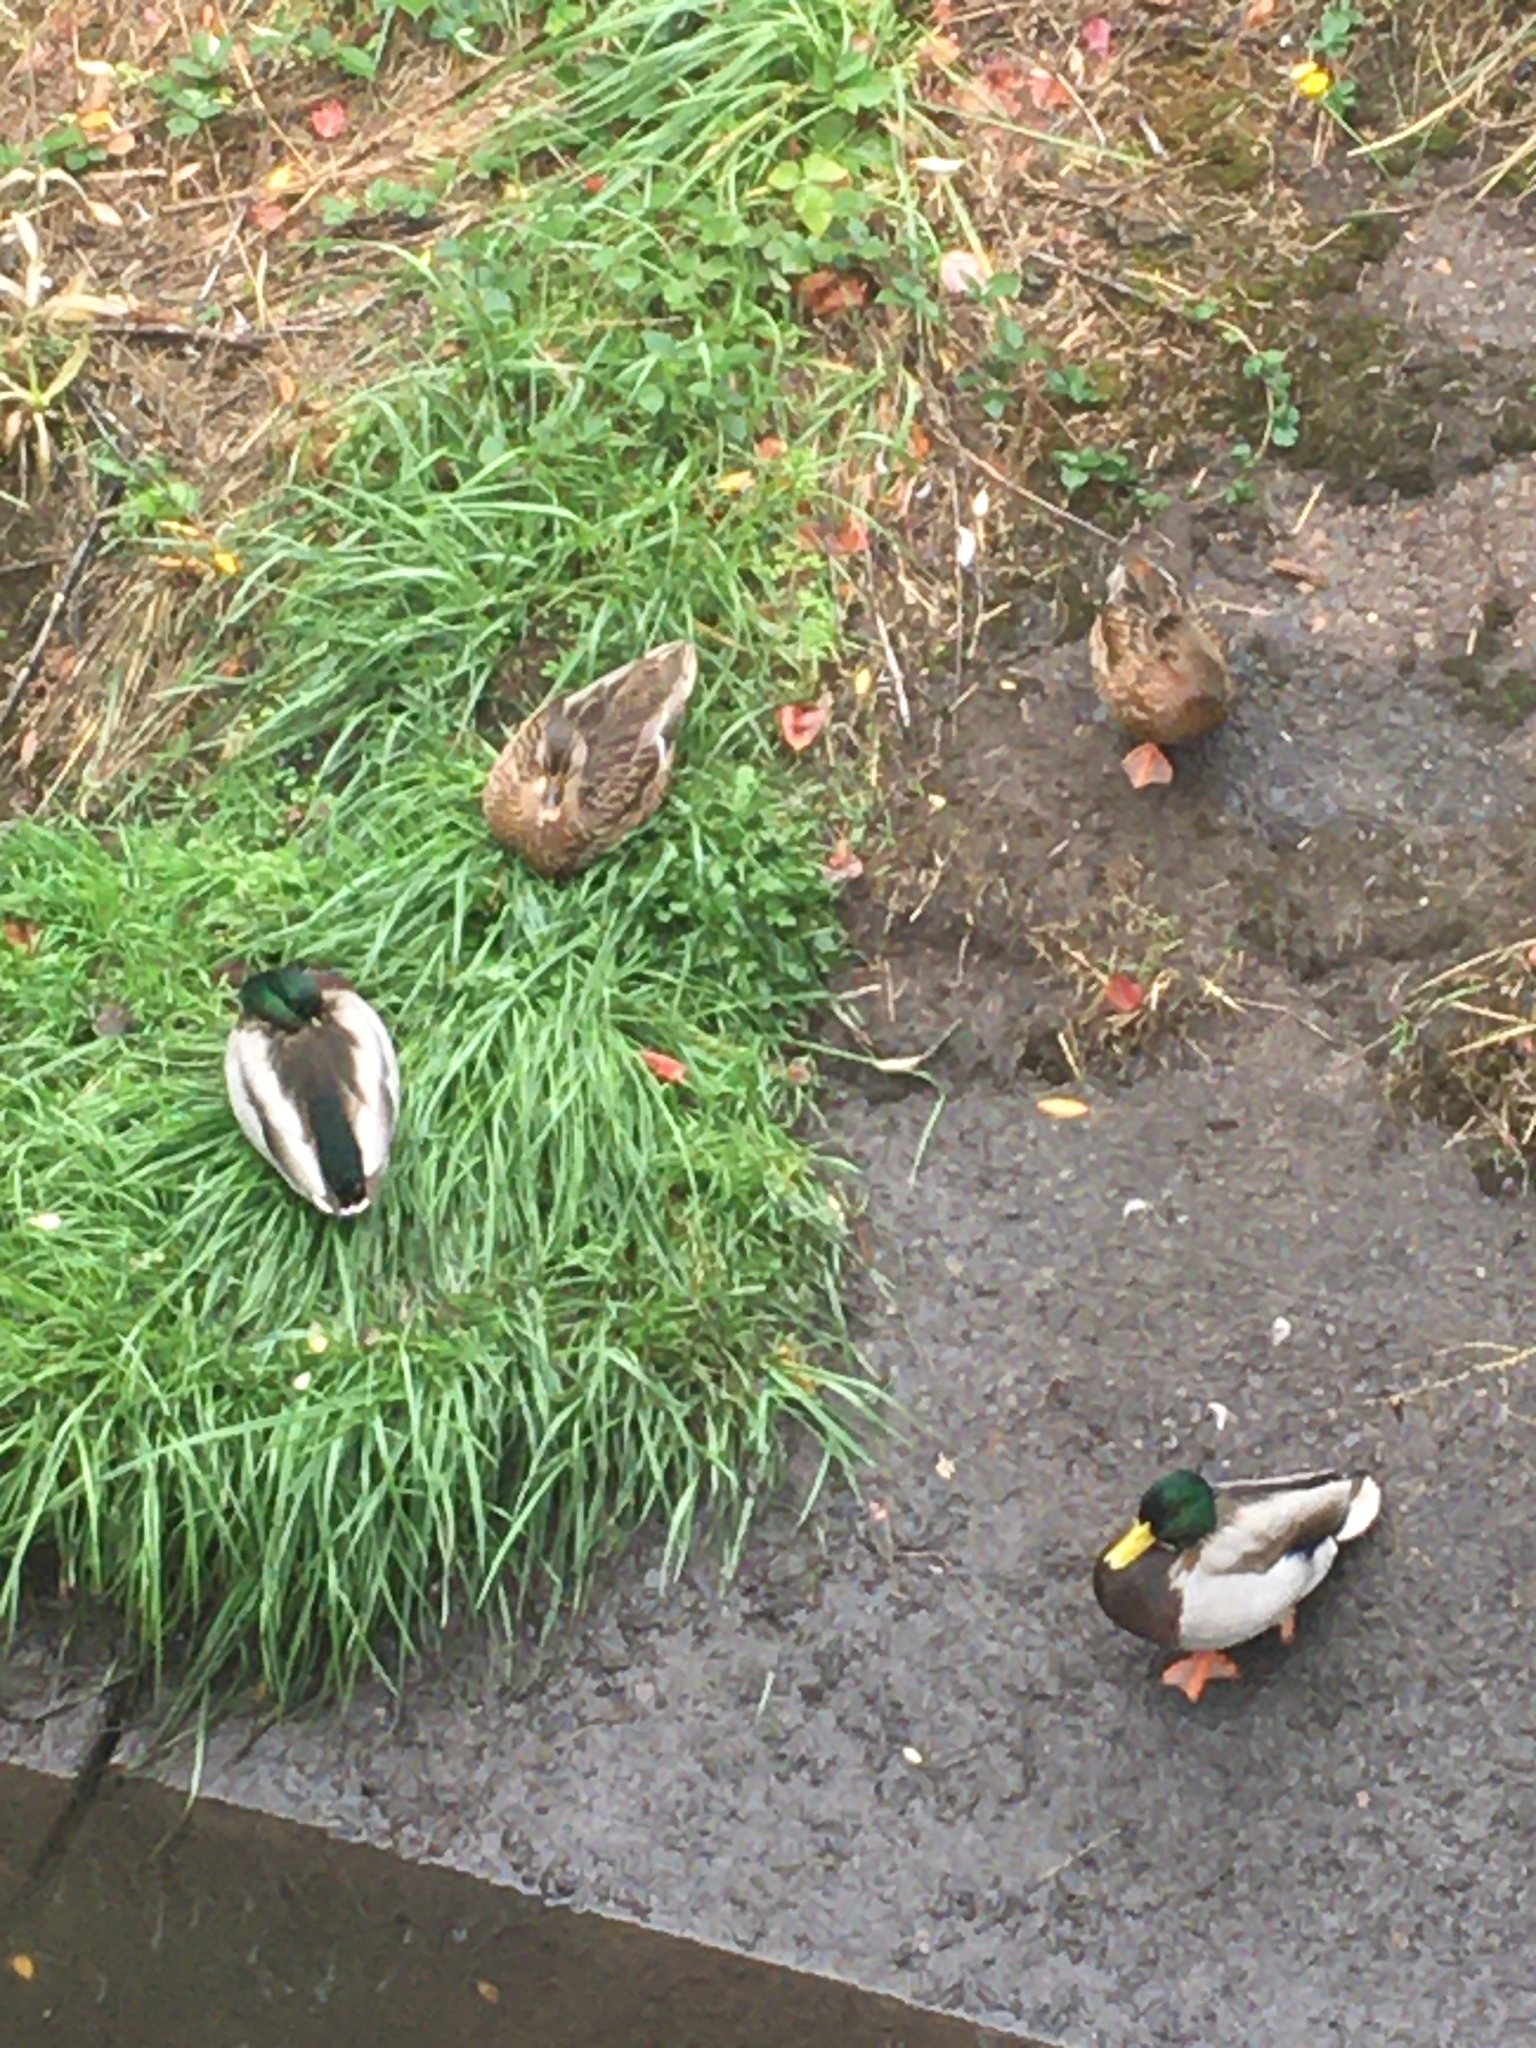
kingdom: Animalia
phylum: Chordata
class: Aves
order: Anseriformes
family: Anatidae
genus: Anas
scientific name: Anas platyrhynchos
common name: Mallard
